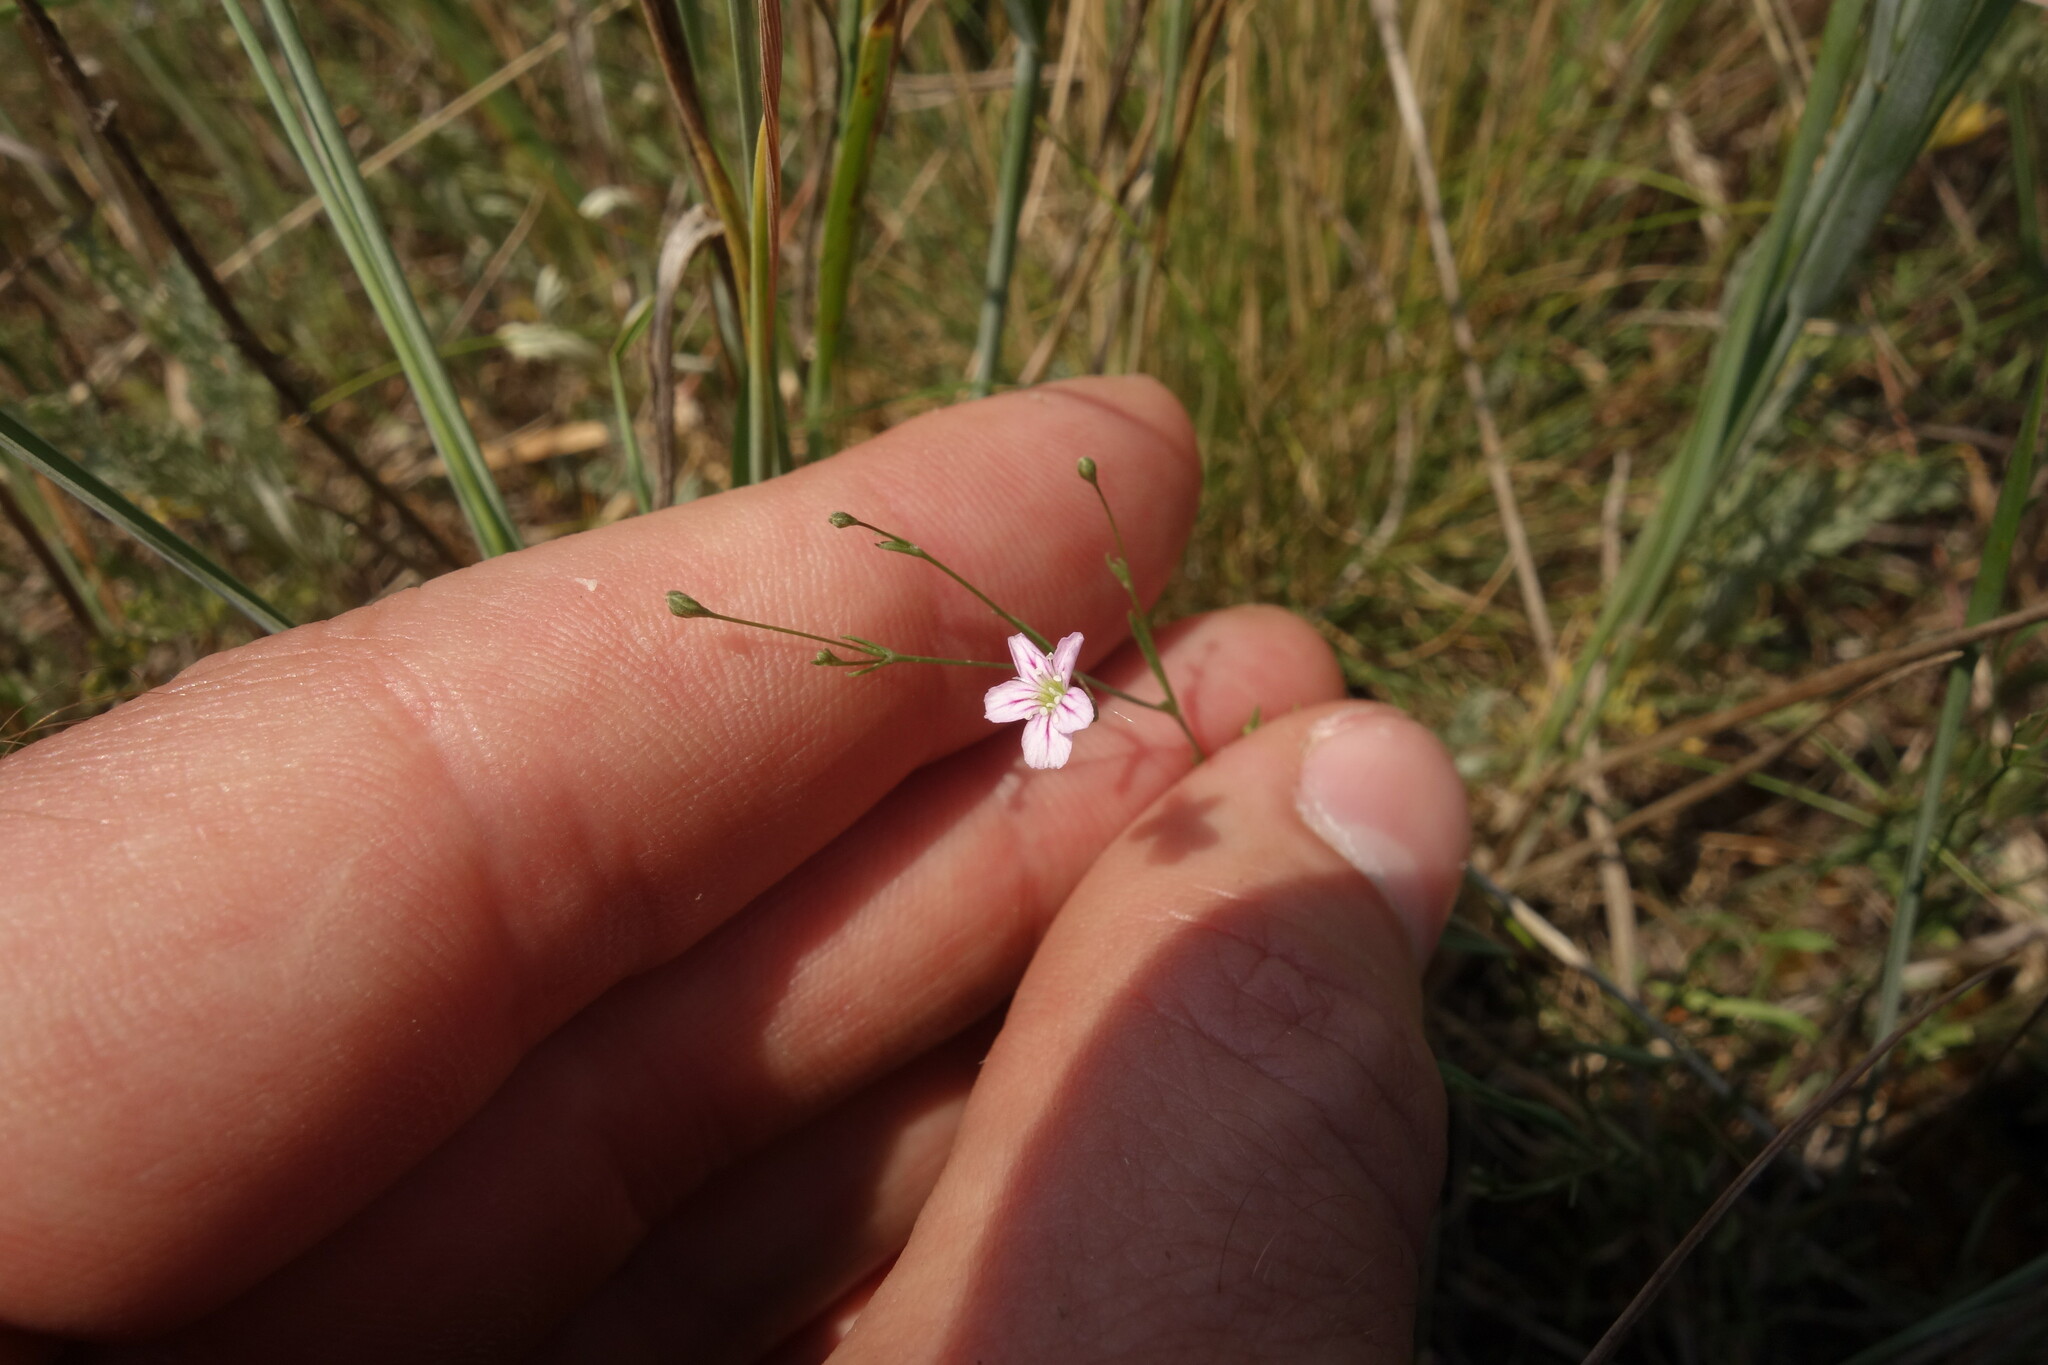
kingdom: Plantae
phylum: Tracheophyta
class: Magnoliopsida
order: Caryophyllales
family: Caryophyllaceae
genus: Psammophiliella
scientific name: Psammophiliella muralis
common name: Cushion baby's-breath
